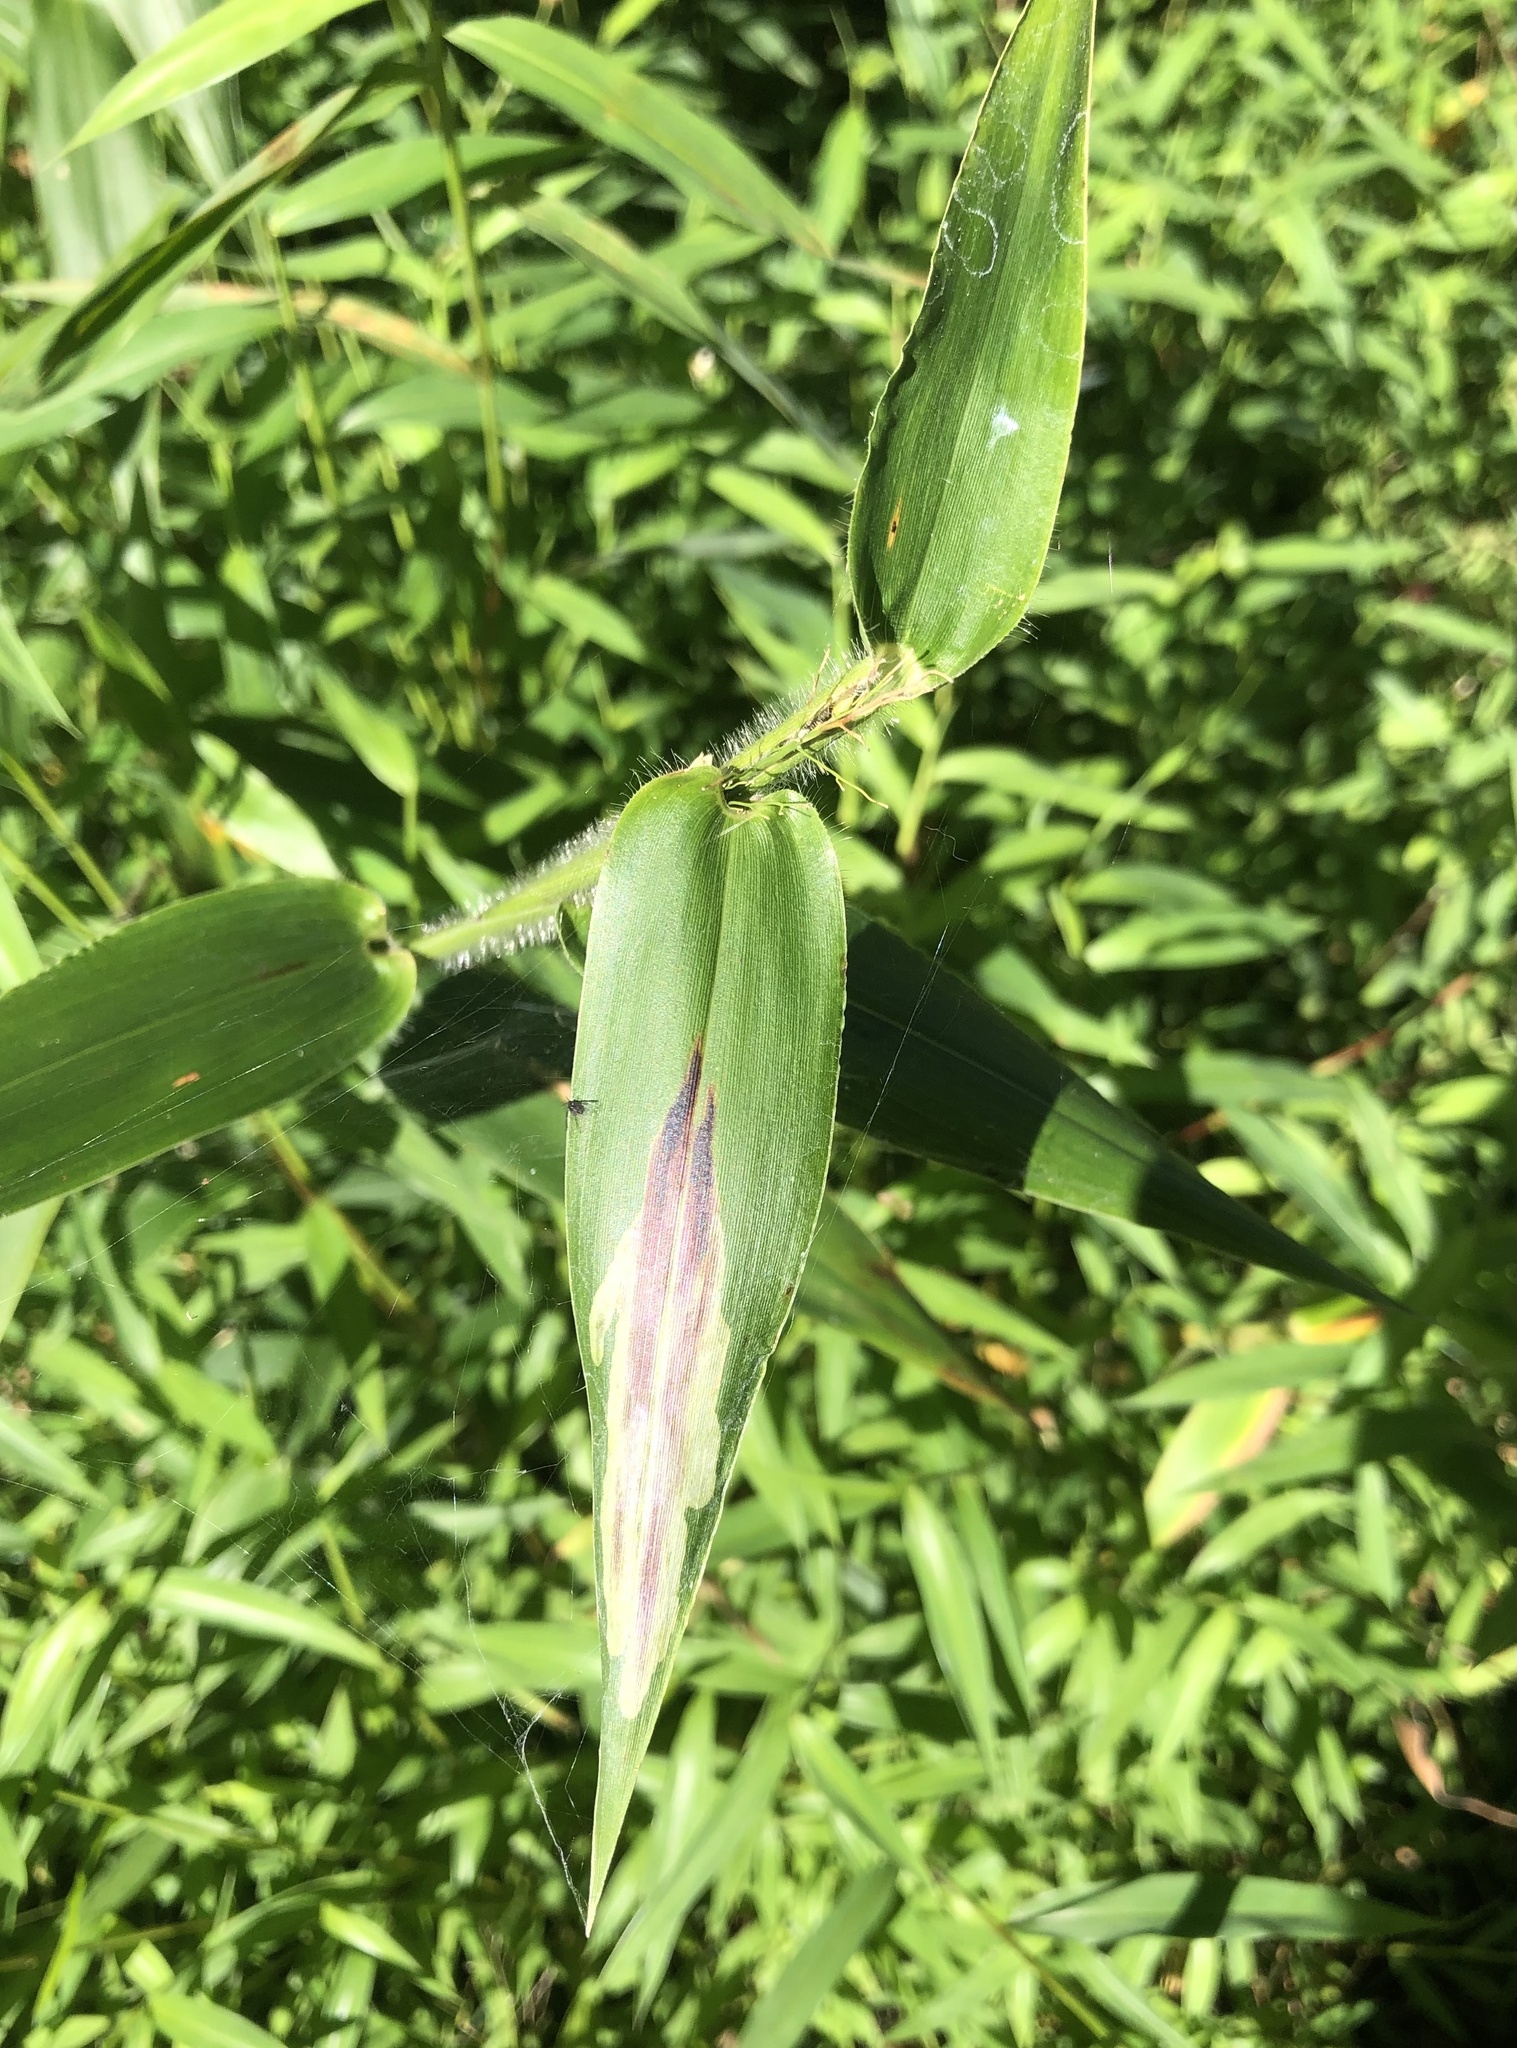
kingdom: Animalia
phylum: Arthropoda
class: Insecta
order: Diptera
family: Agromyzidae
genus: Cerodontha
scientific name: Cerodontha angulata
